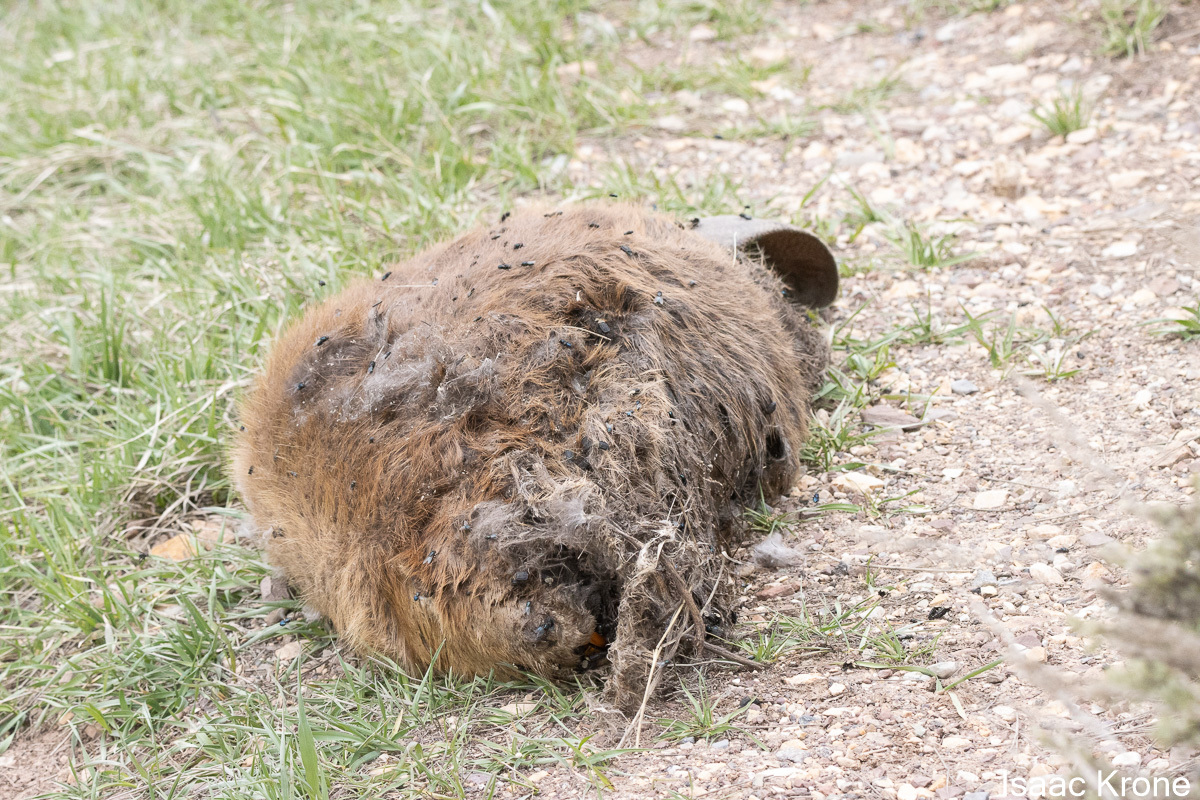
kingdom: Animalia
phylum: Chordata
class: Mammalia
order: Rodentia
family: Castoridae
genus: Castor
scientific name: Castor canadensis
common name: American beaver
